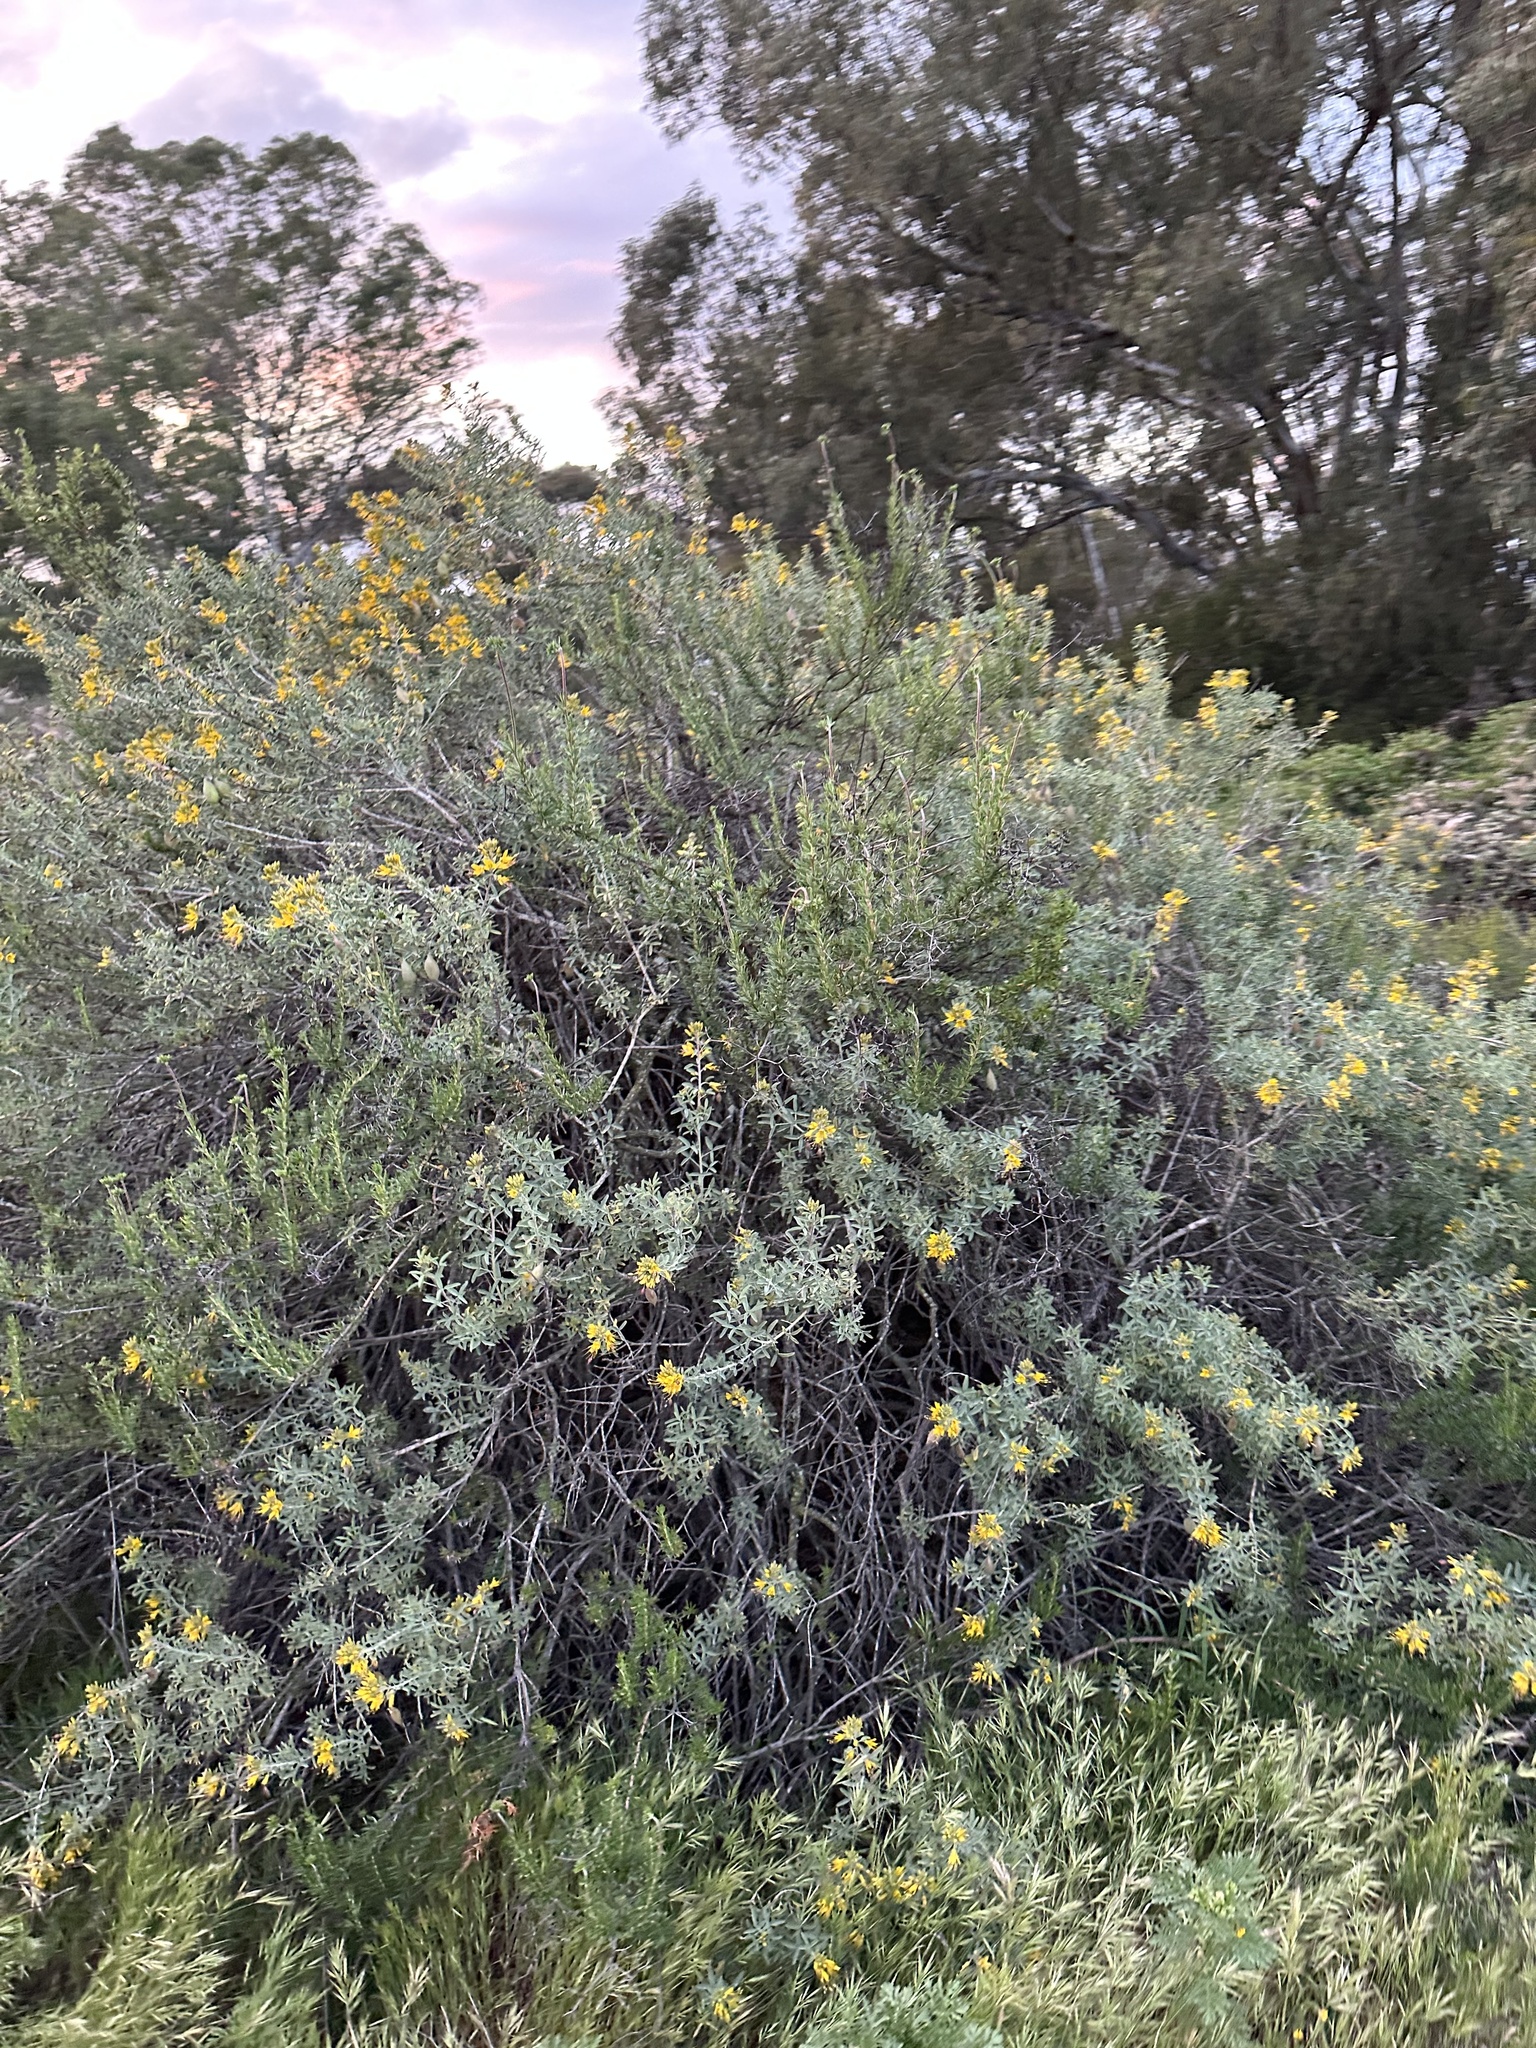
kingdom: Plantae
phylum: Tracheophyta
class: Magnoliopsida
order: Brassicales
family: Cleomaceae
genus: Cleomella
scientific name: Cleomella arborea
